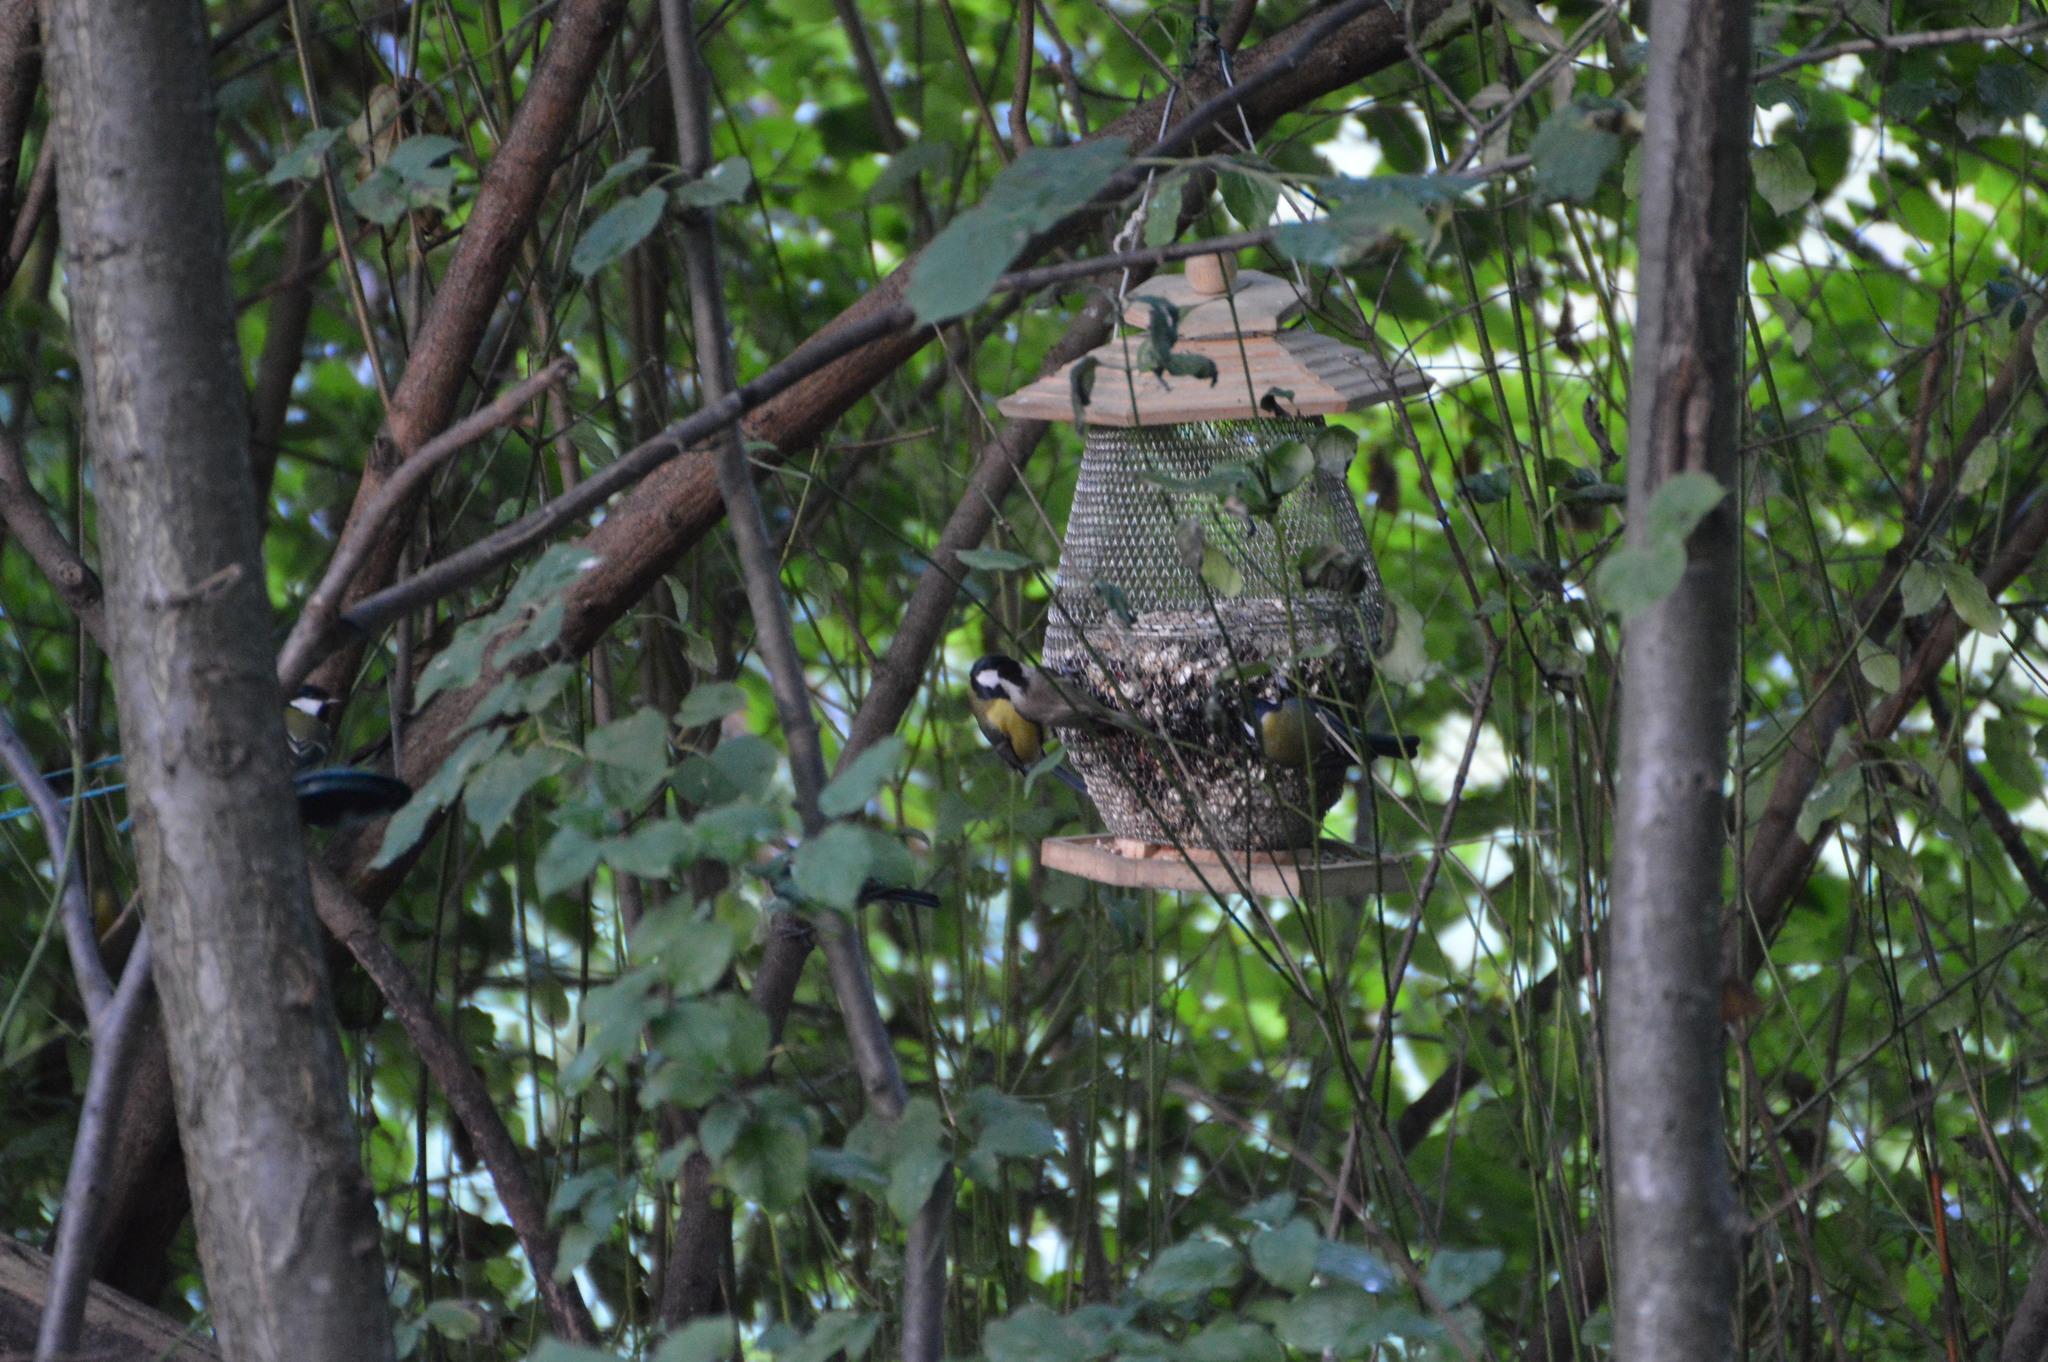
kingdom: Animalia
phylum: Chordata
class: Aves
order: Passeriformes
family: Paridae
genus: Poecile
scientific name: Poecile palustris
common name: Marsh tit
